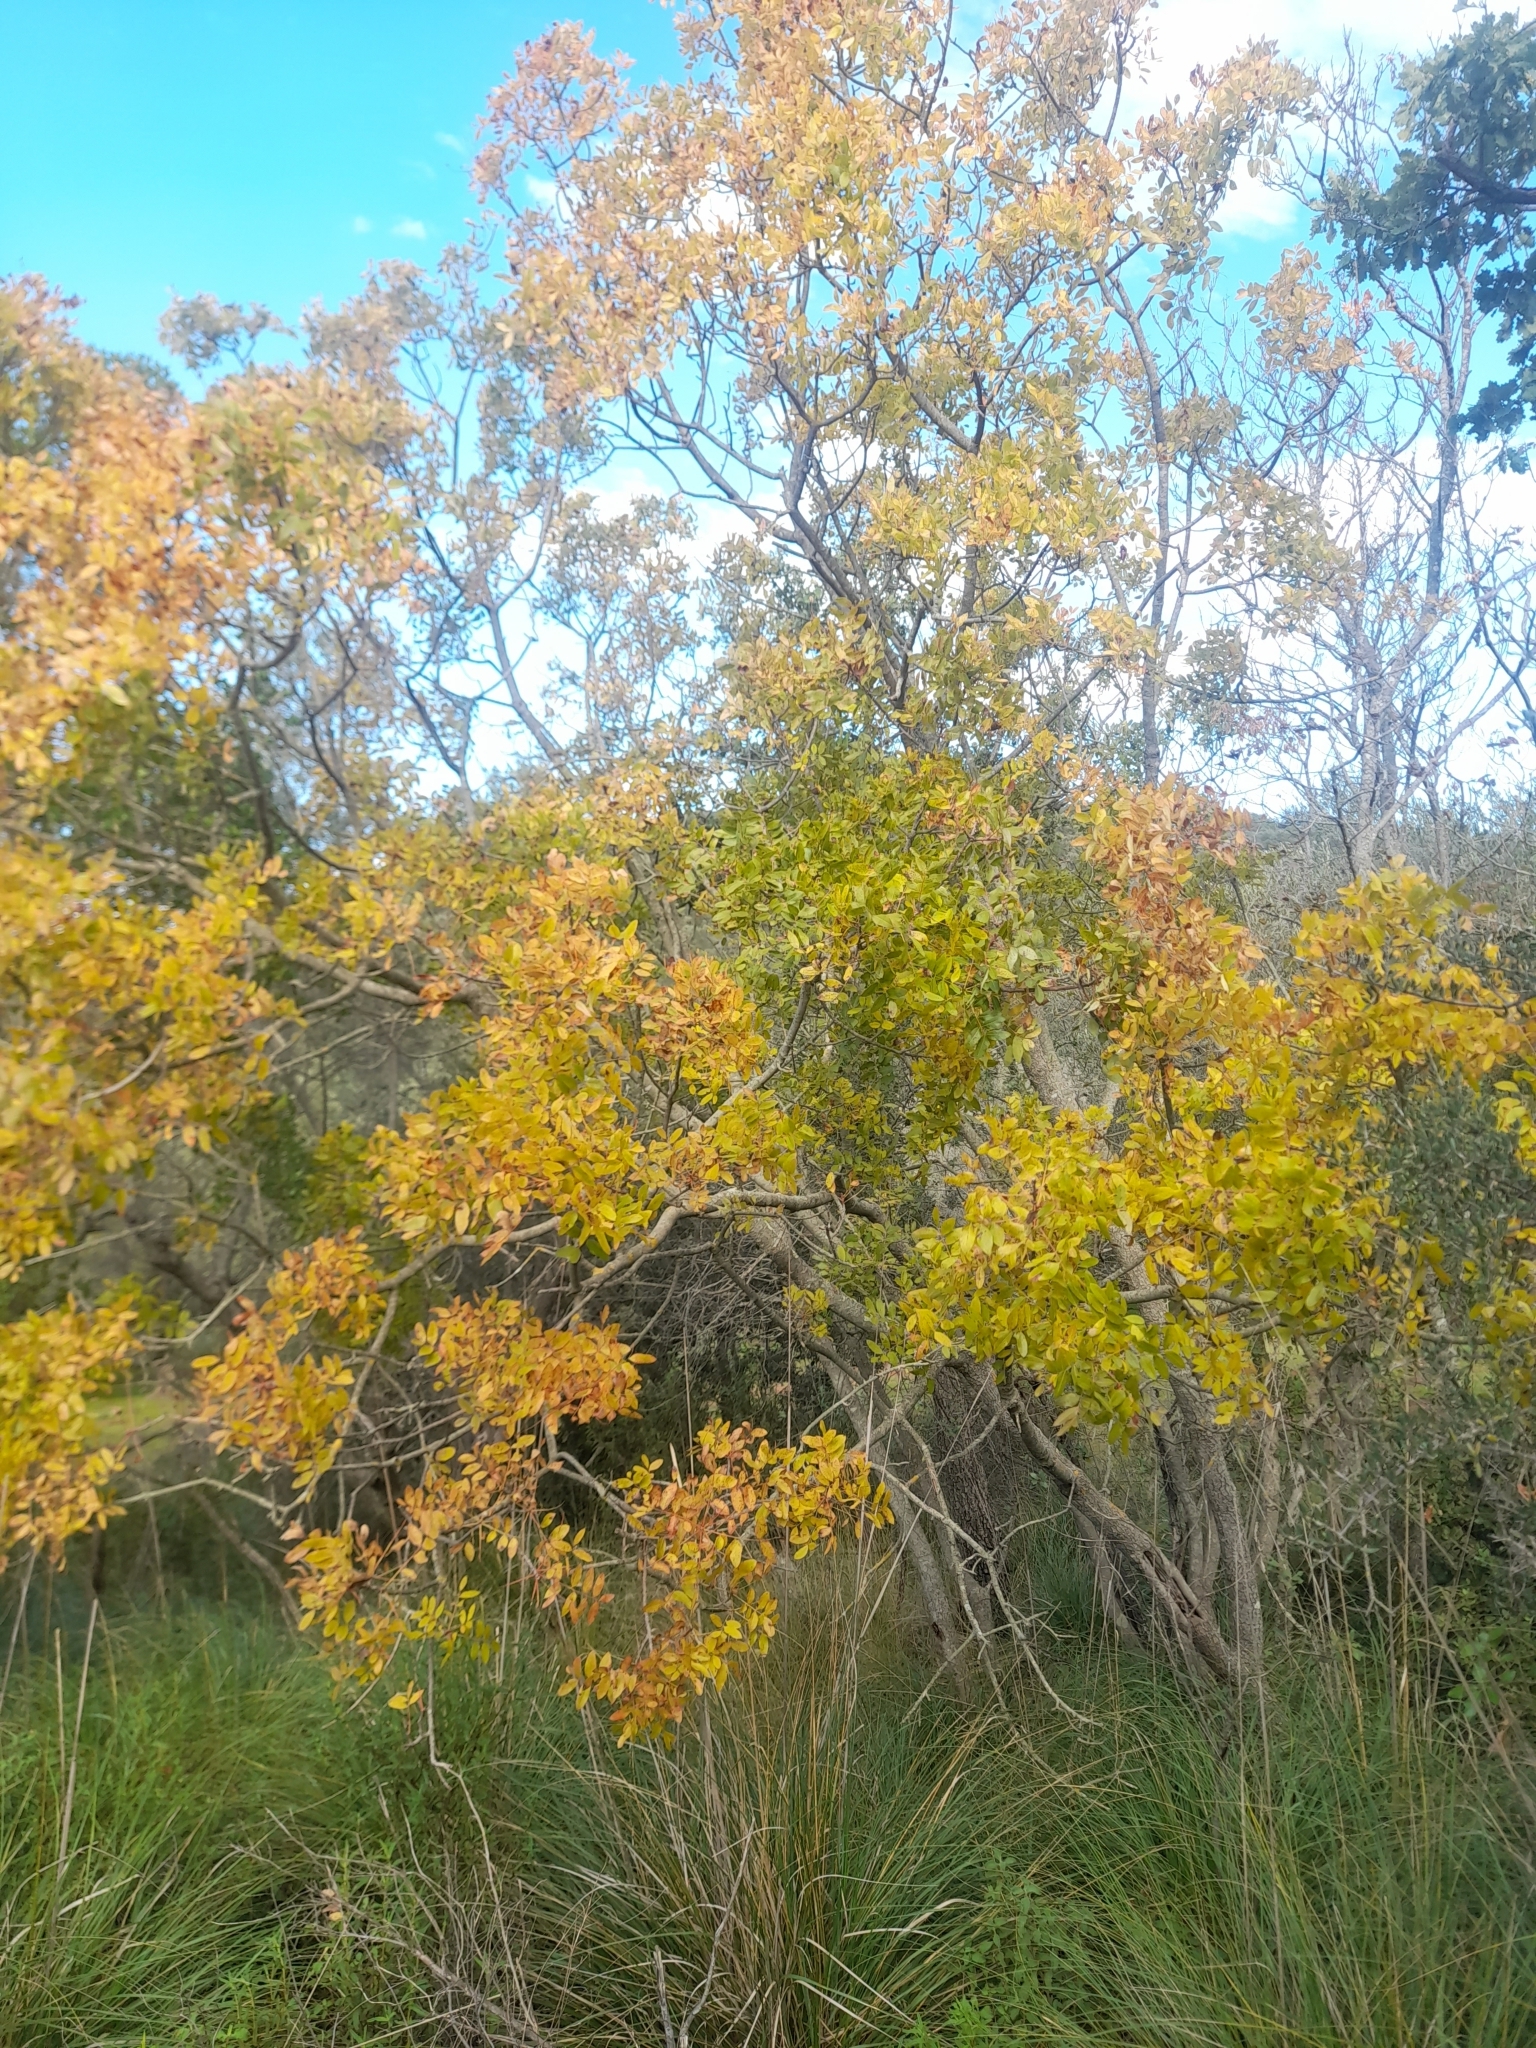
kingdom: Plantae
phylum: Tracheophyta
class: Magnoliopsida
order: Sapindales
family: Anacardiaceae
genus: Pistacia
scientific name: Pistacia terebinthus
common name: Terebinth
